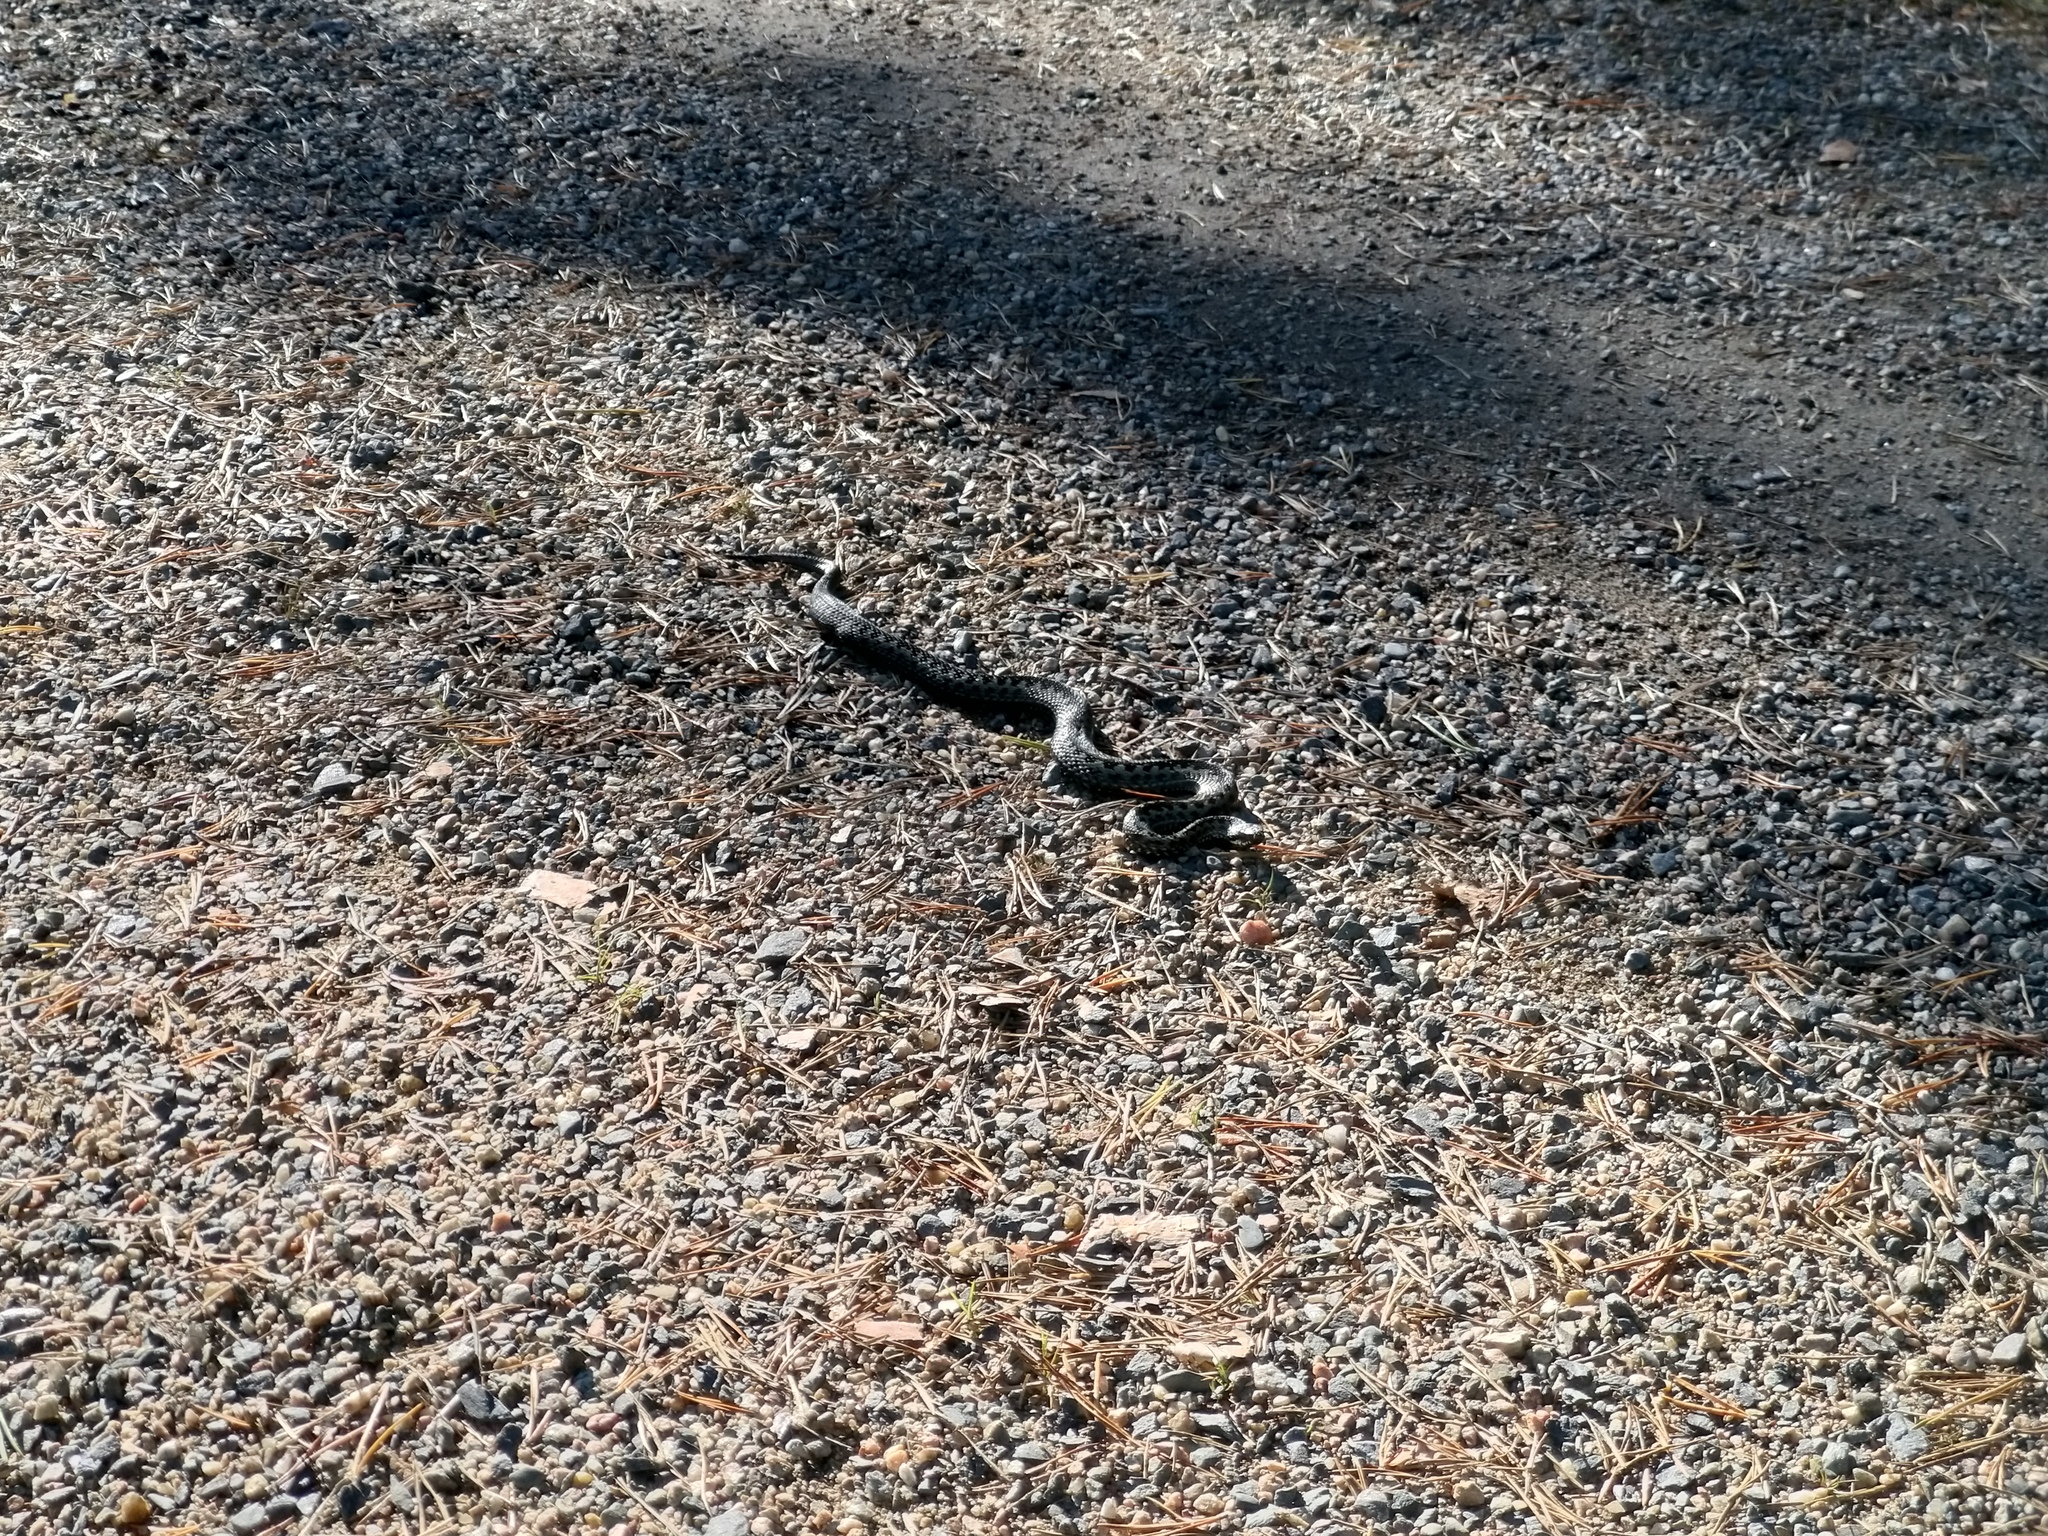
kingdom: Animalia
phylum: Chordata
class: Squamata
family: Viperidae
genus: Vipera
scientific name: Vipera berus
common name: Adder
